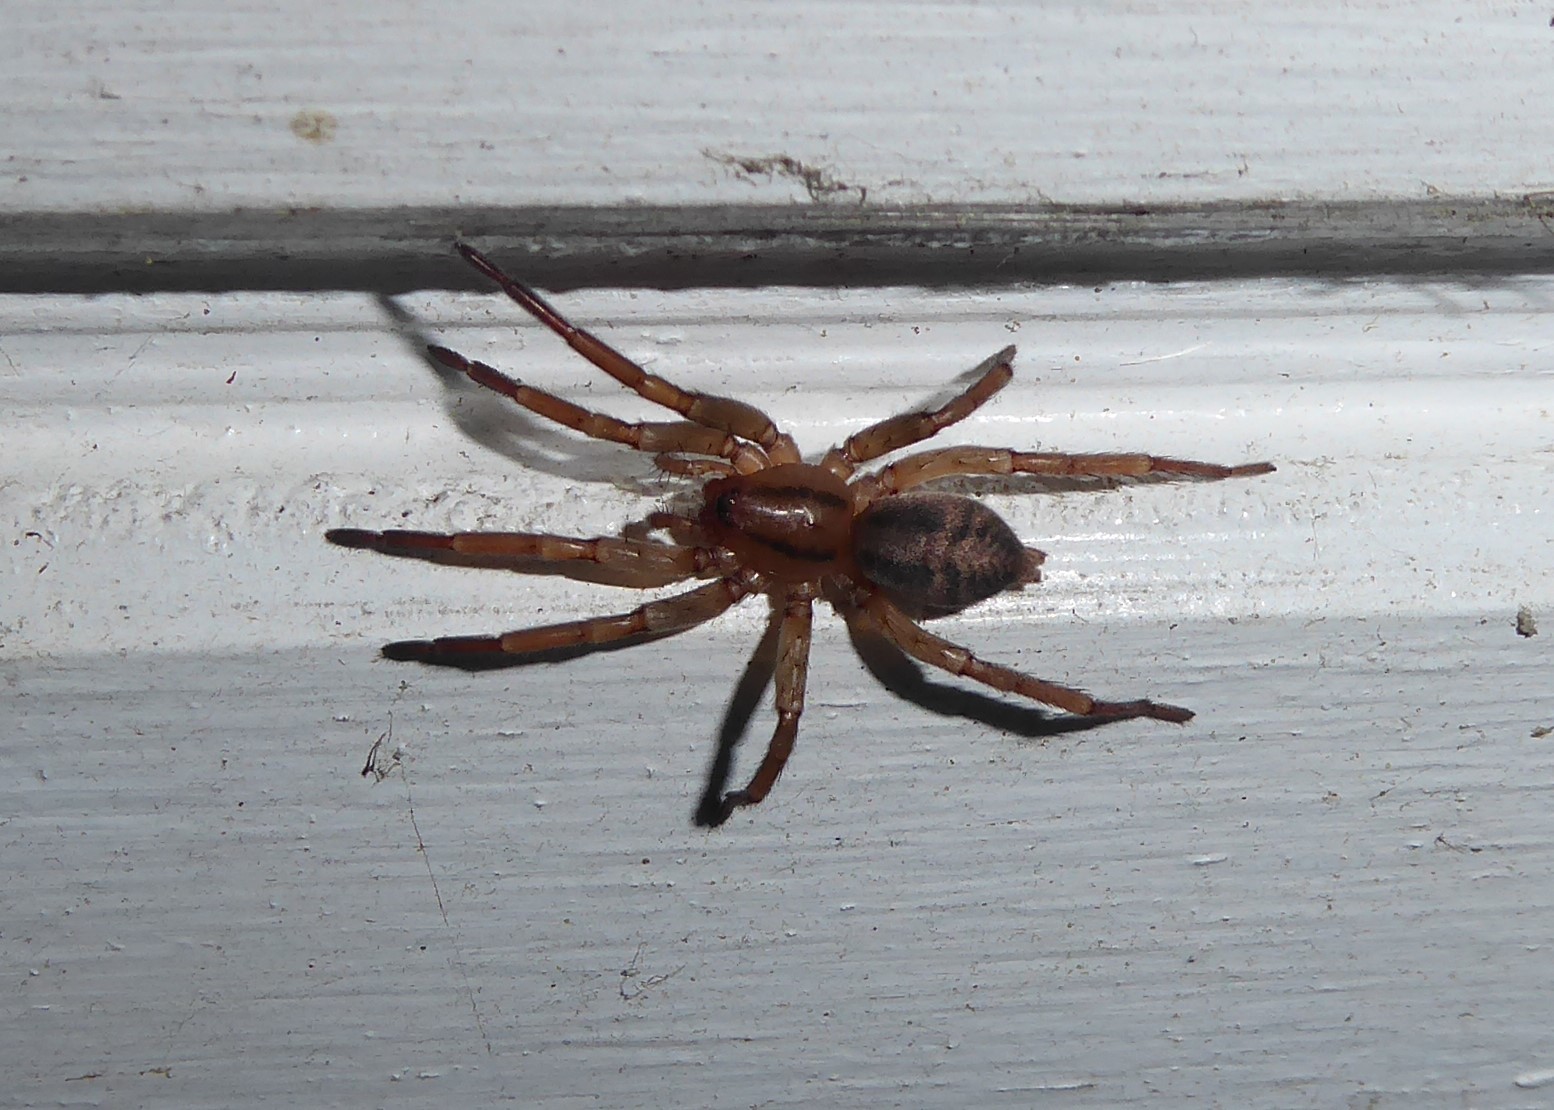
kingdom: Animalia
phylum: Arthropoda
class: Arachnida
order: Araneae
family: Gnaphosidae
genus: Notiodrassus
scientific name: Notiodrassus distinctus
